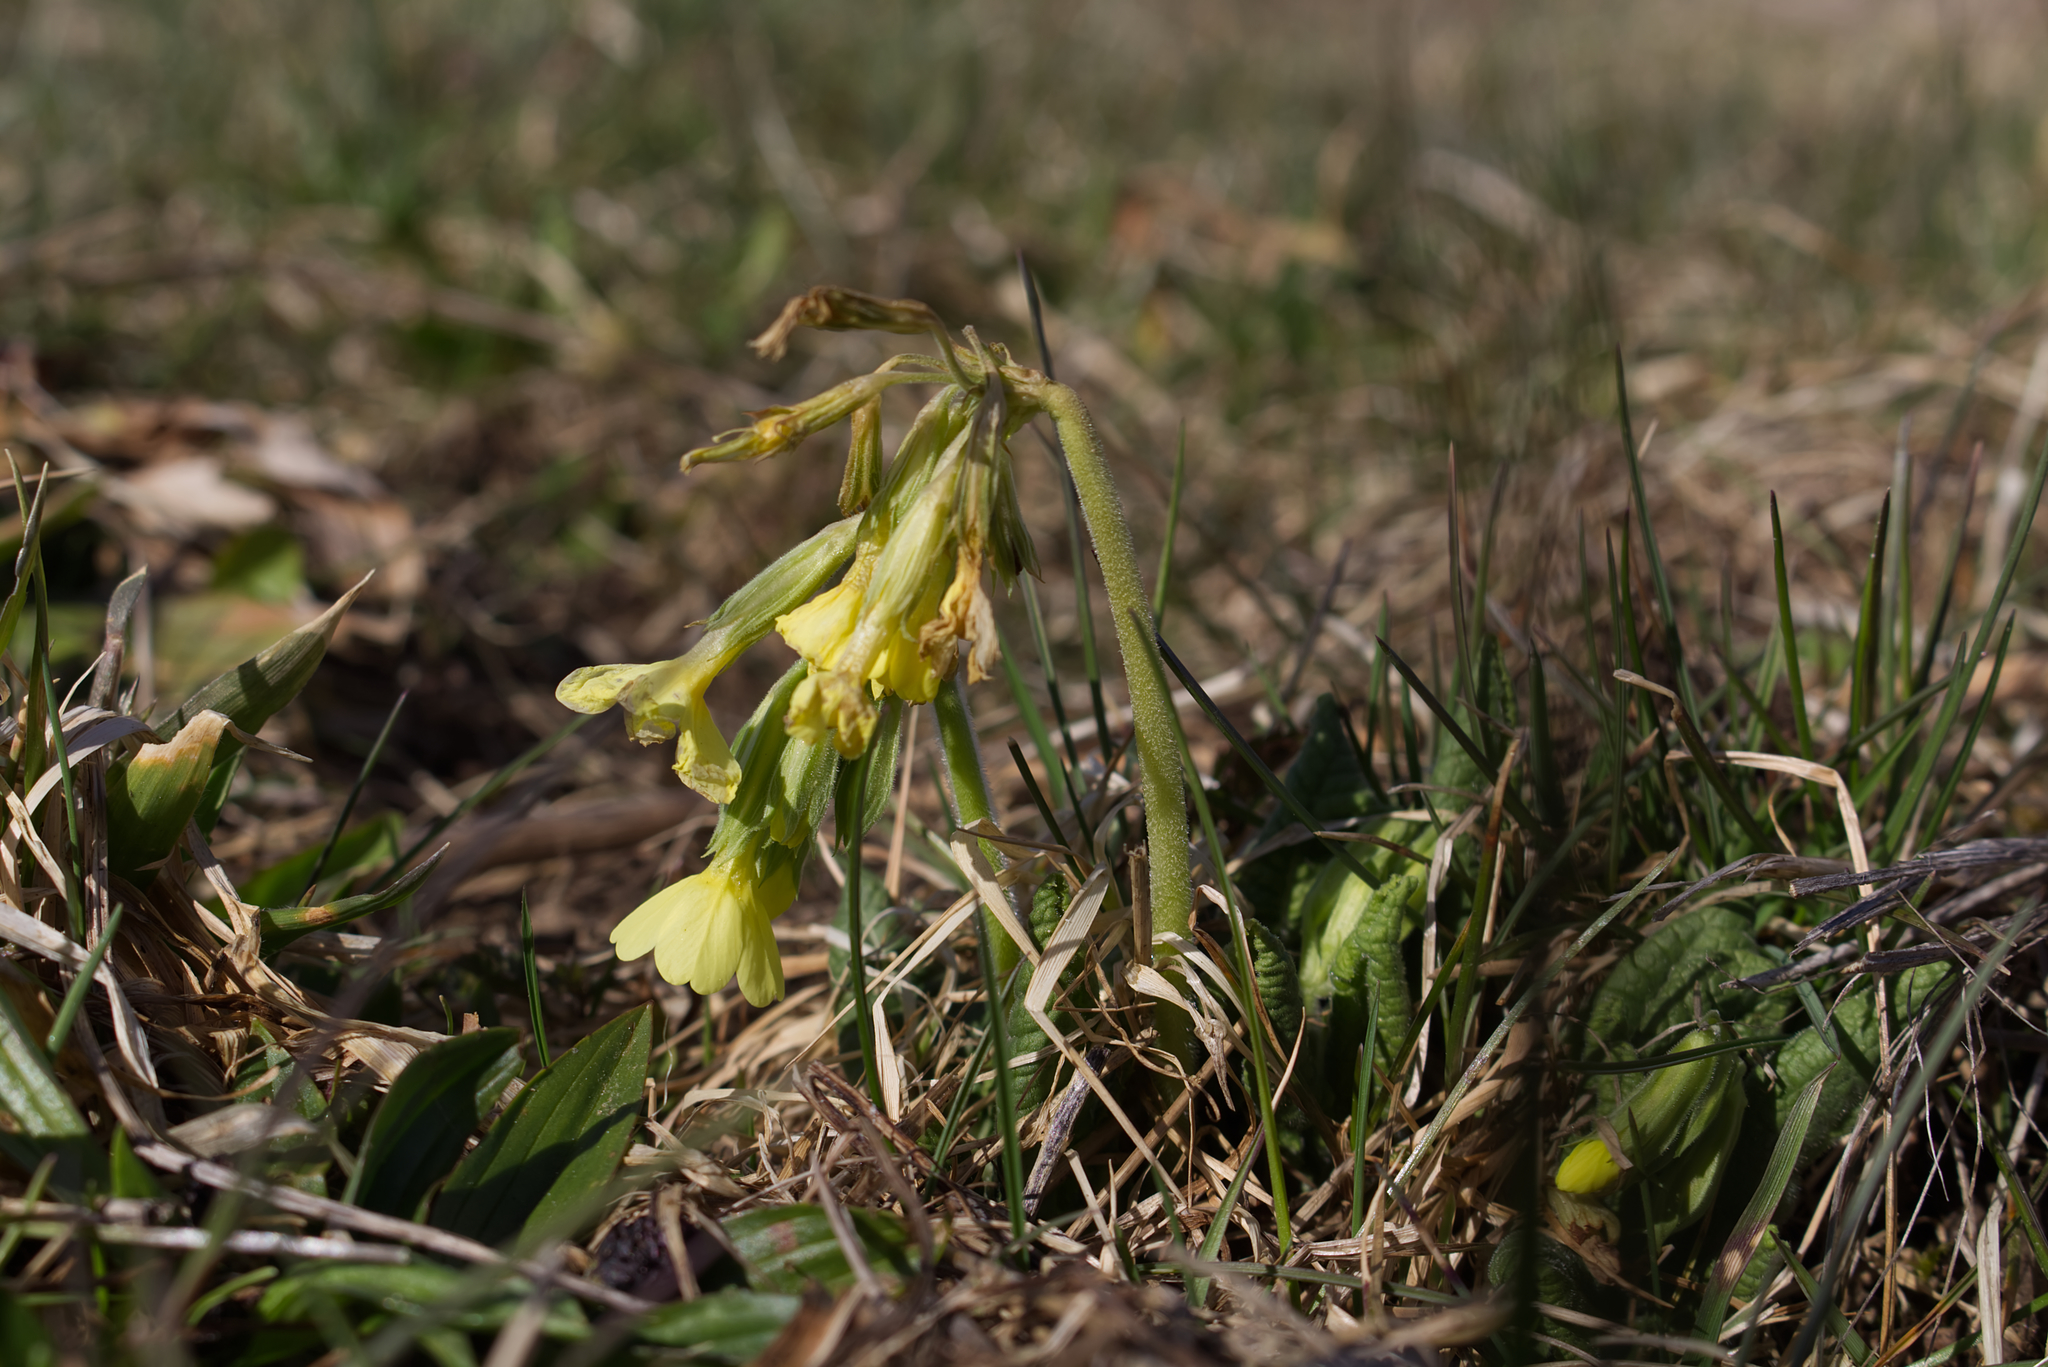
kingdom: Plantae
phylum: Tracheophyta
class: Magnoliopsida
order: Ericales
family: Primulaceae
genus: Primula
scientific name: Primula elatior
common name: Oxlip
